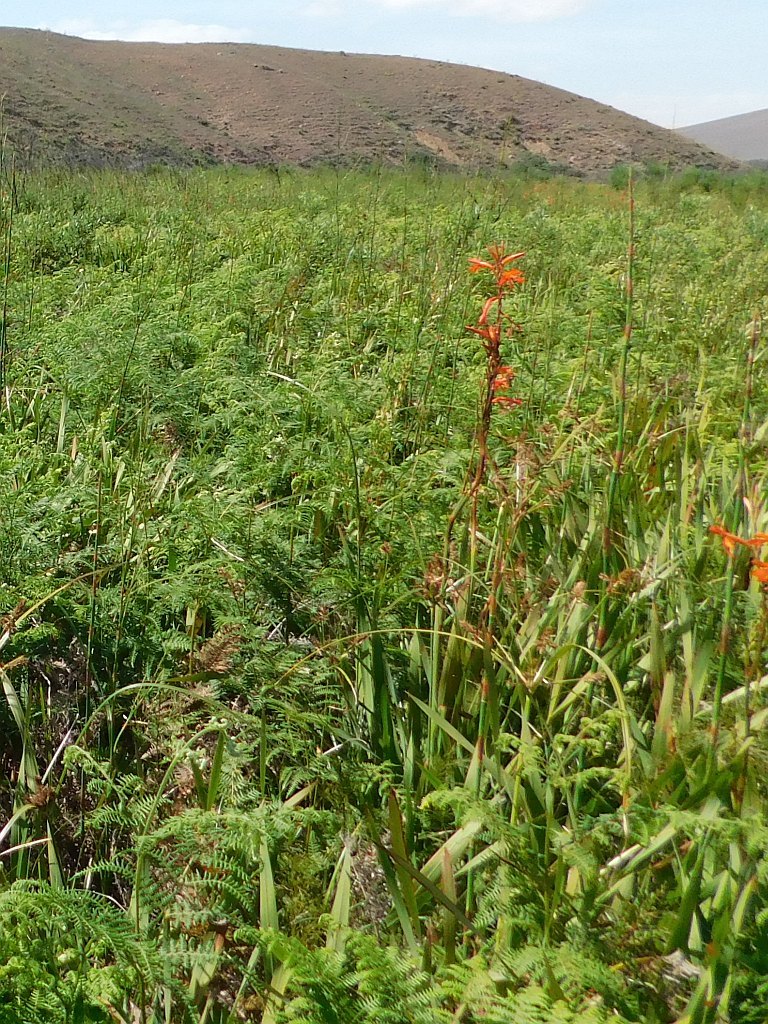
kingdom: Plantae
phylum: Tracheophyta
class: Liliopsida
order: Asparagales
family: Iridaceae
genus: Watsonia
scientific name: Watsonia angusta
